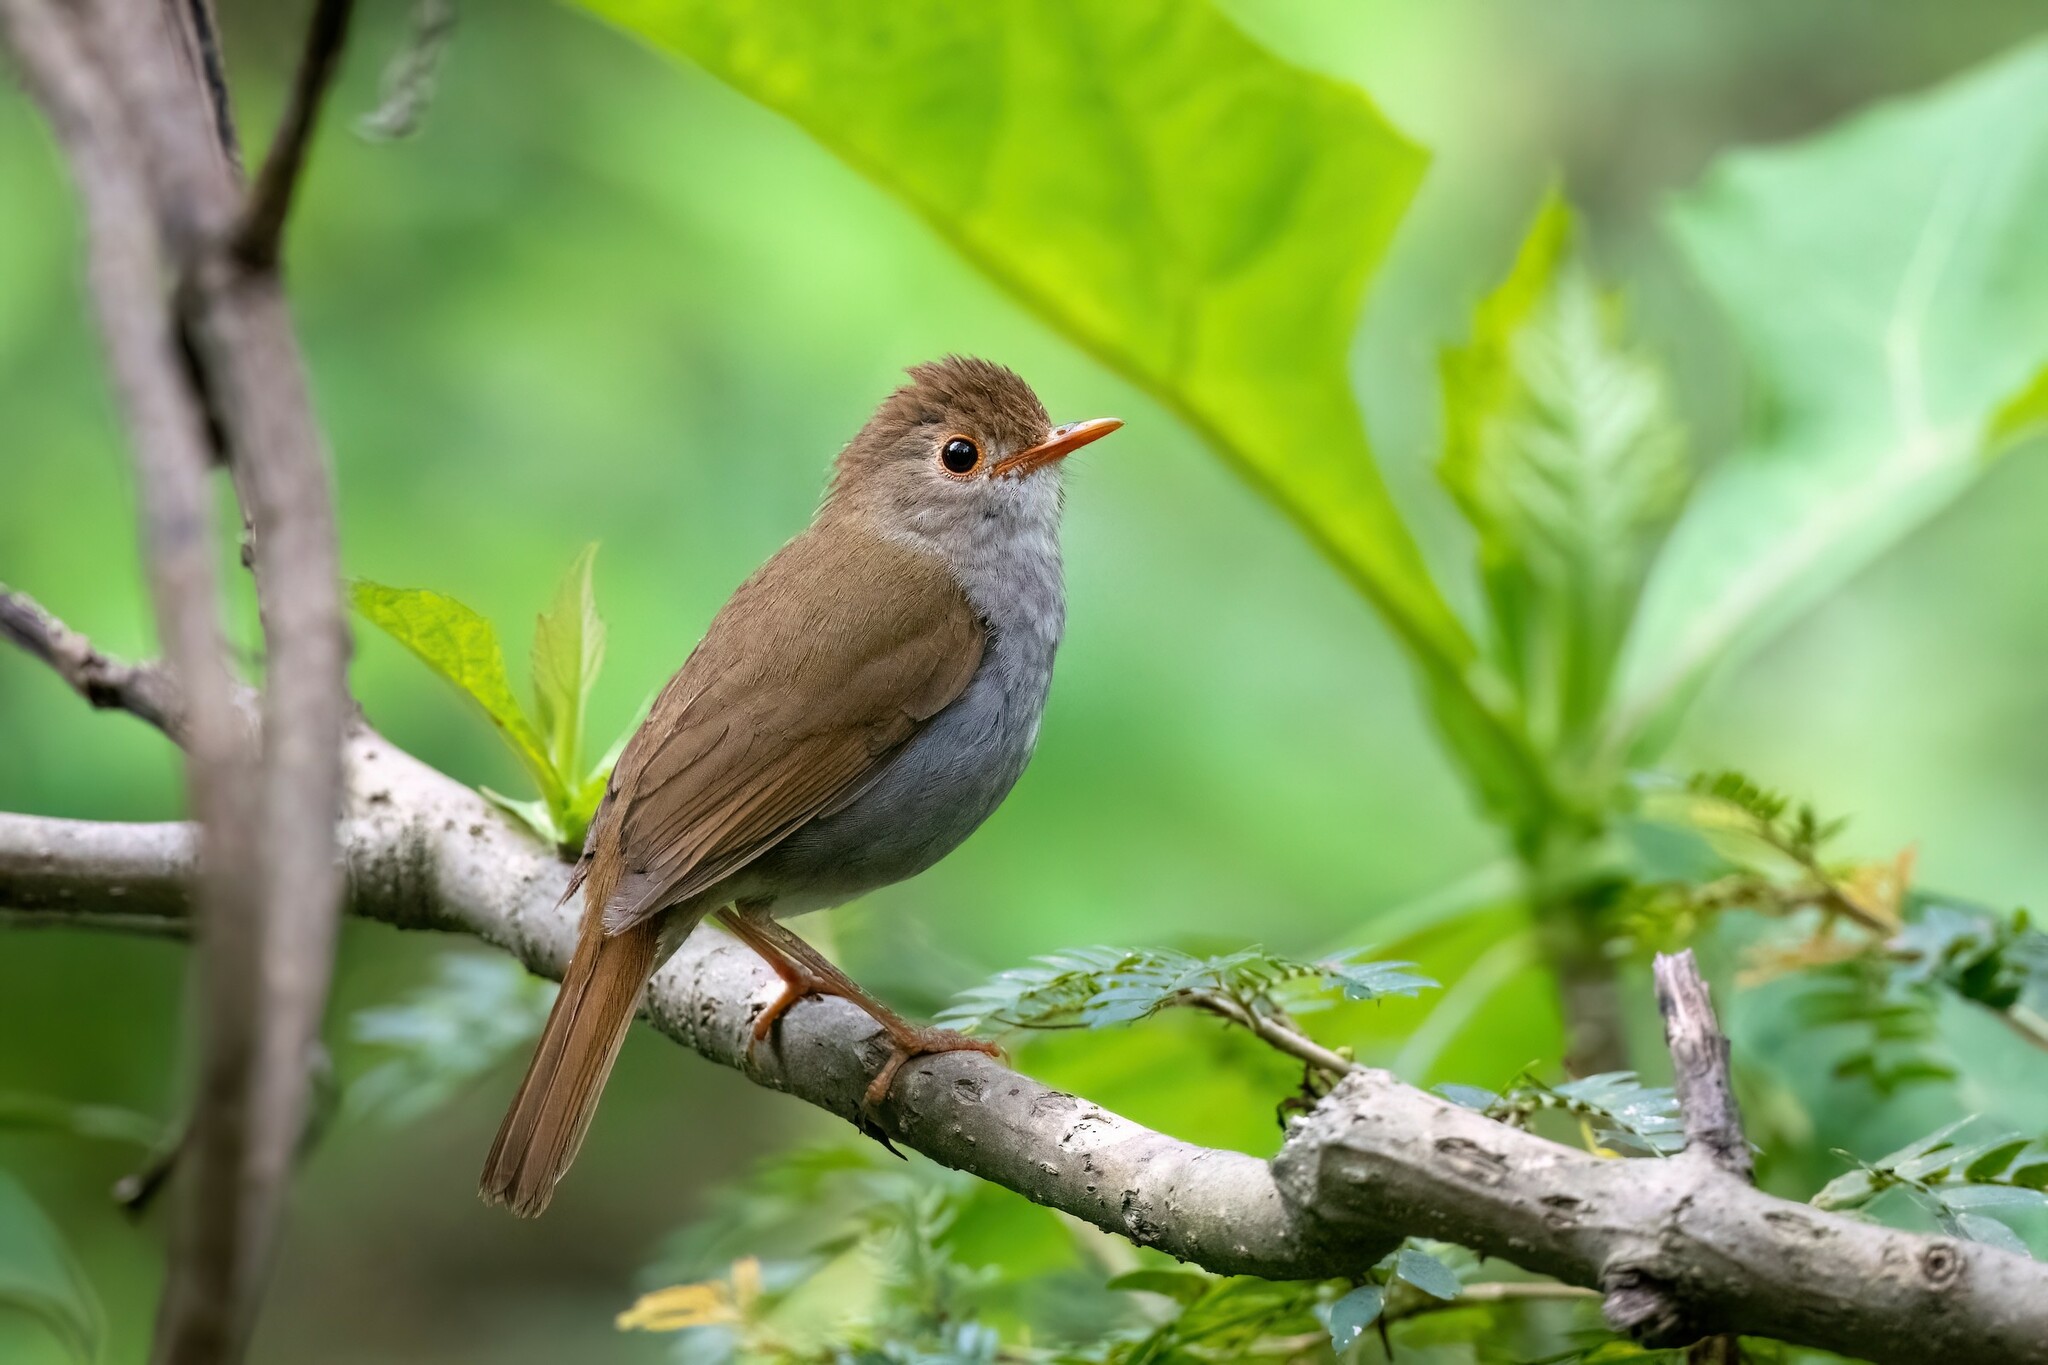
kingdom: Animalia
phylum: Chordata
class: Aves
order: Passeriformes
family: Turdidae
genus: Catharus
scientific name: Catharus aurantiirostris
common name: Orange-billed nightingale-thrush
